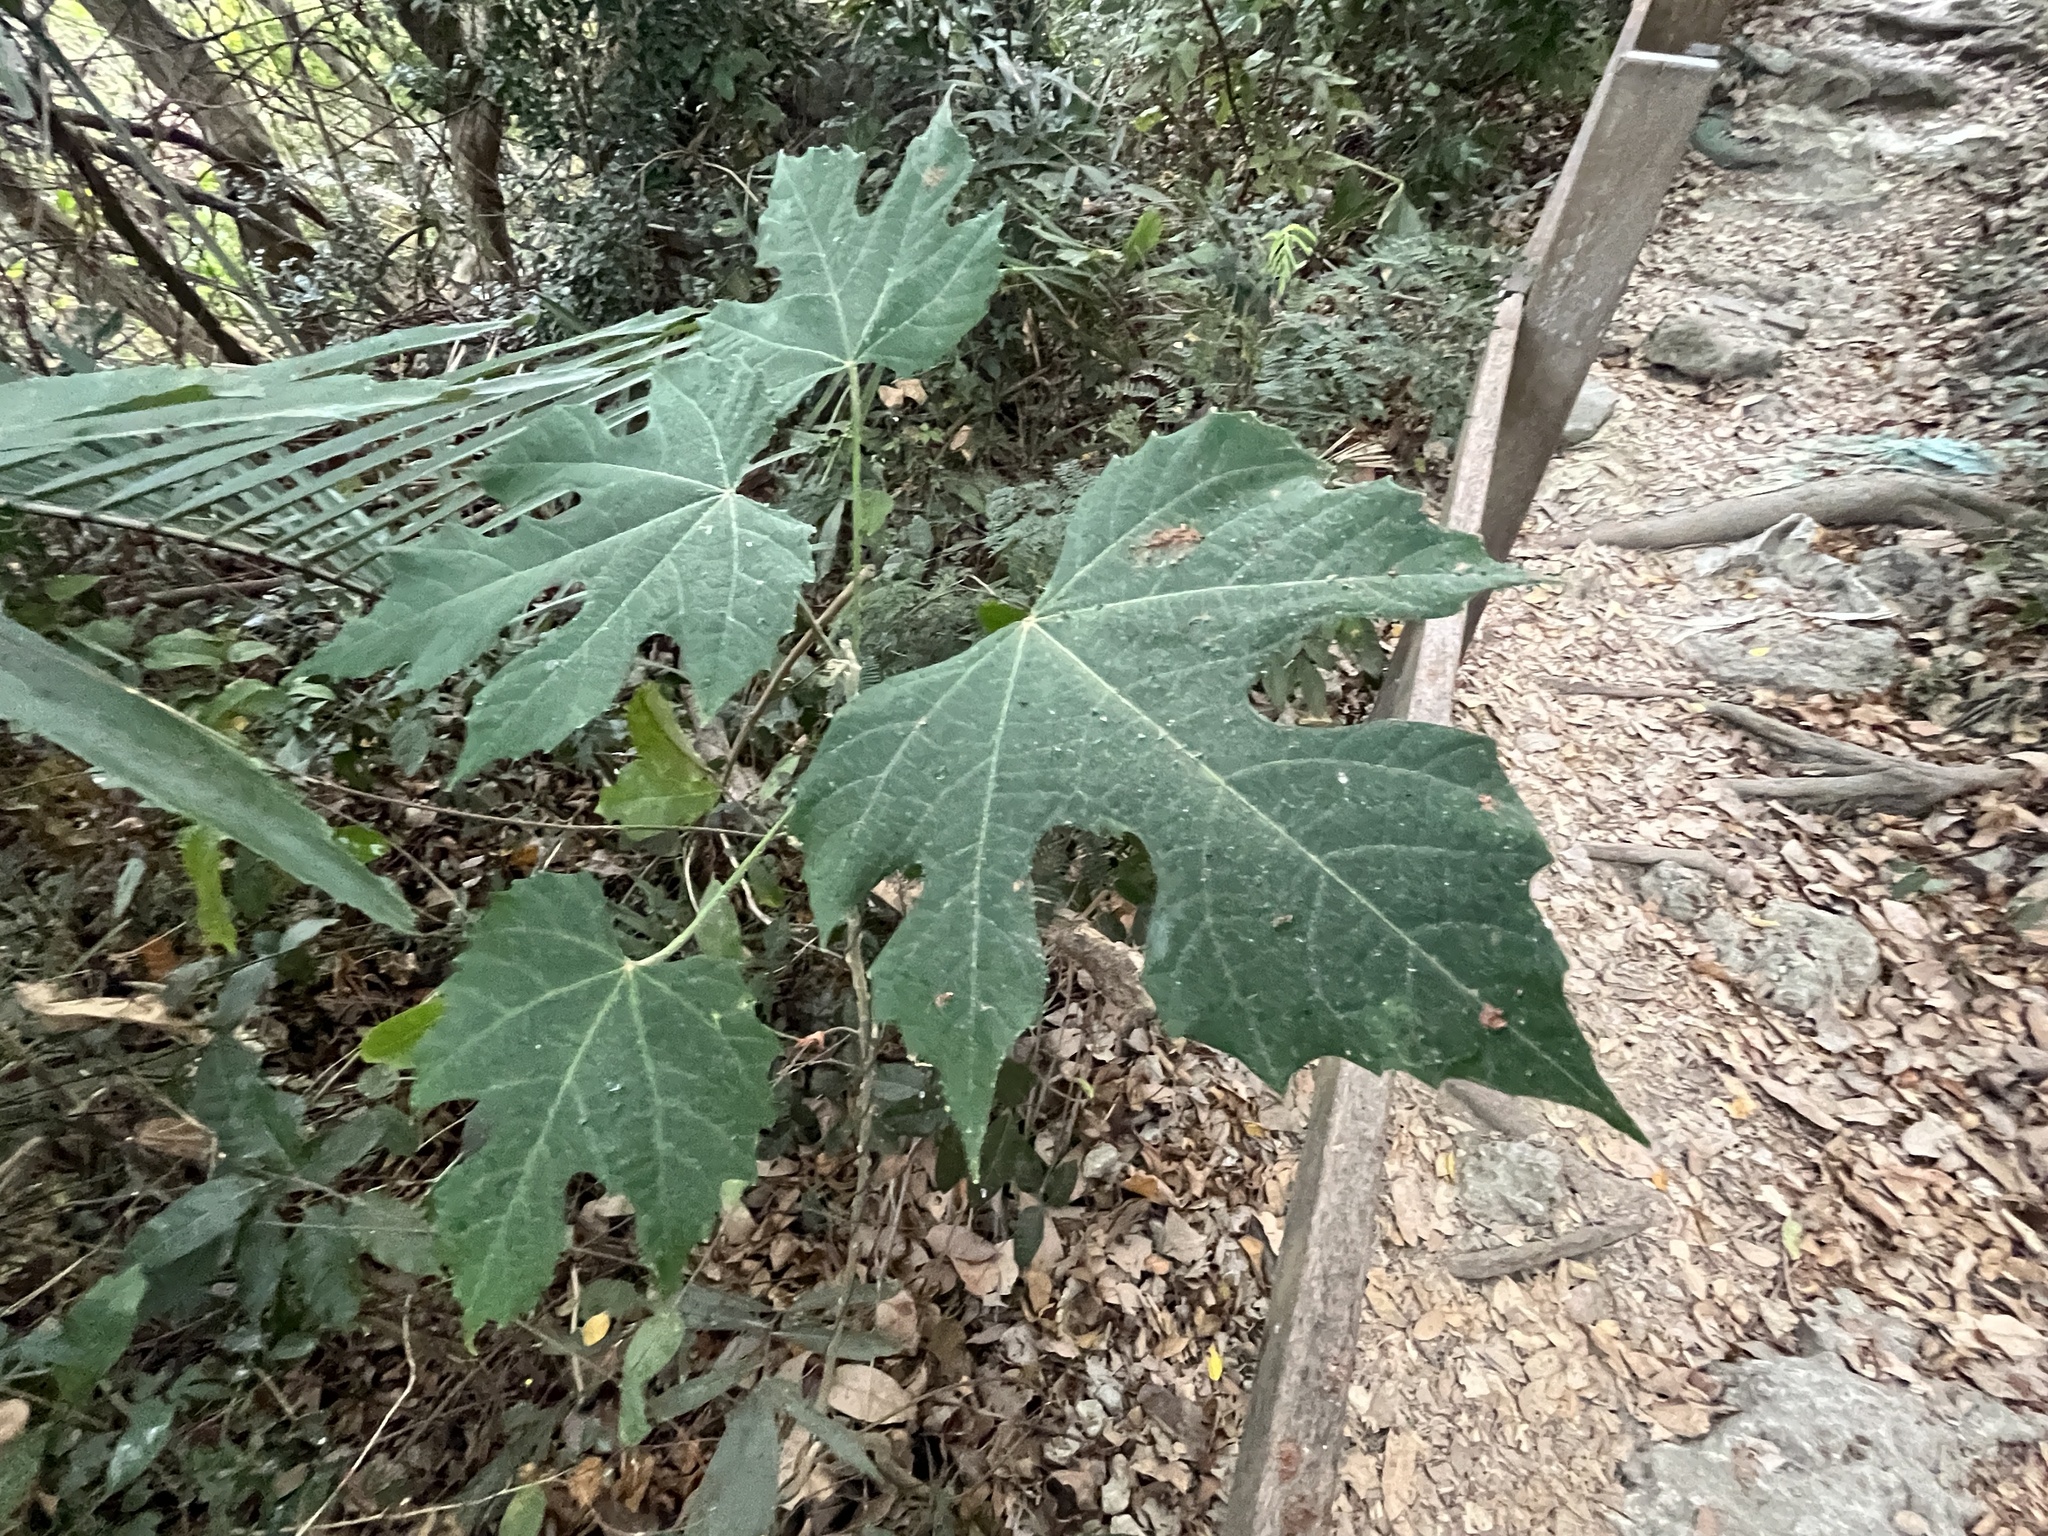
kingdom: Plantae
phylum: Tracheophyta
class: Magnoliopsida
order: Malpighiales
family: Euphorbiaceae
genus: Melanolepis
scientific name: Melanolepis multiglandulosa
